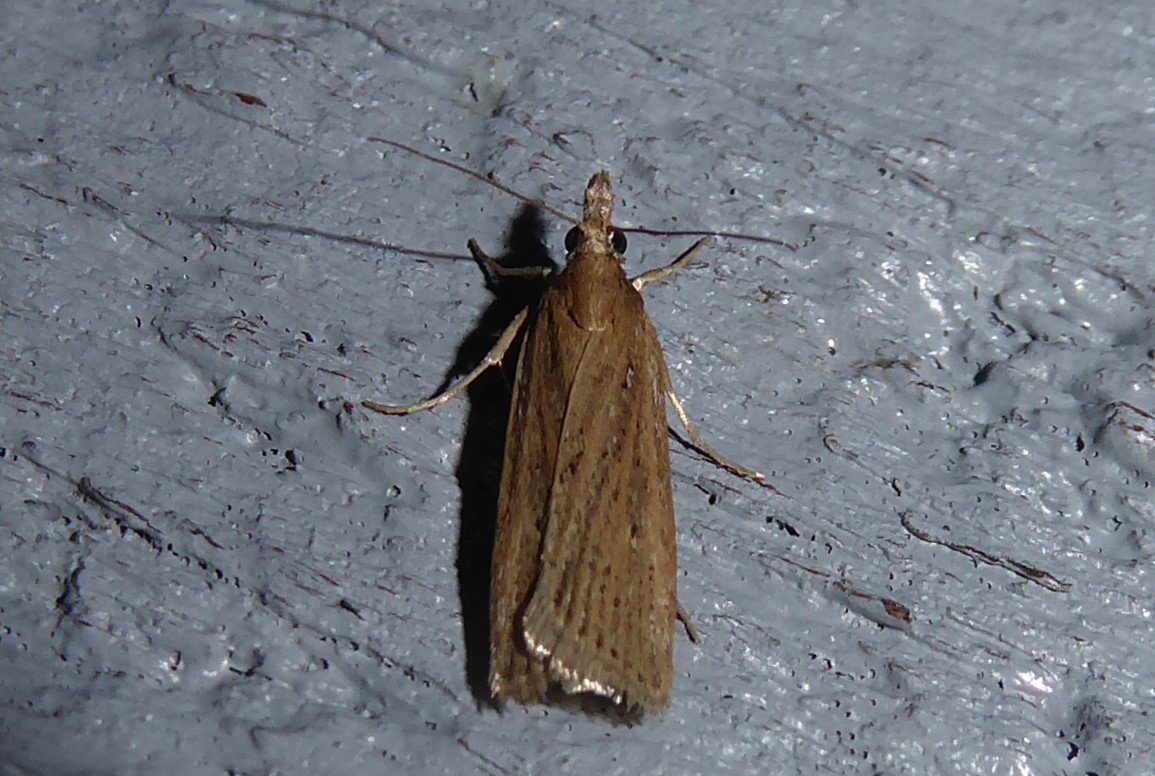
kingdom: Animalia
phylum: Arthropoda
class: Insecta
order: Lepidoptera
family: Crambidae
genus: Eudonia
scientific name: Eudonia sabulosella
